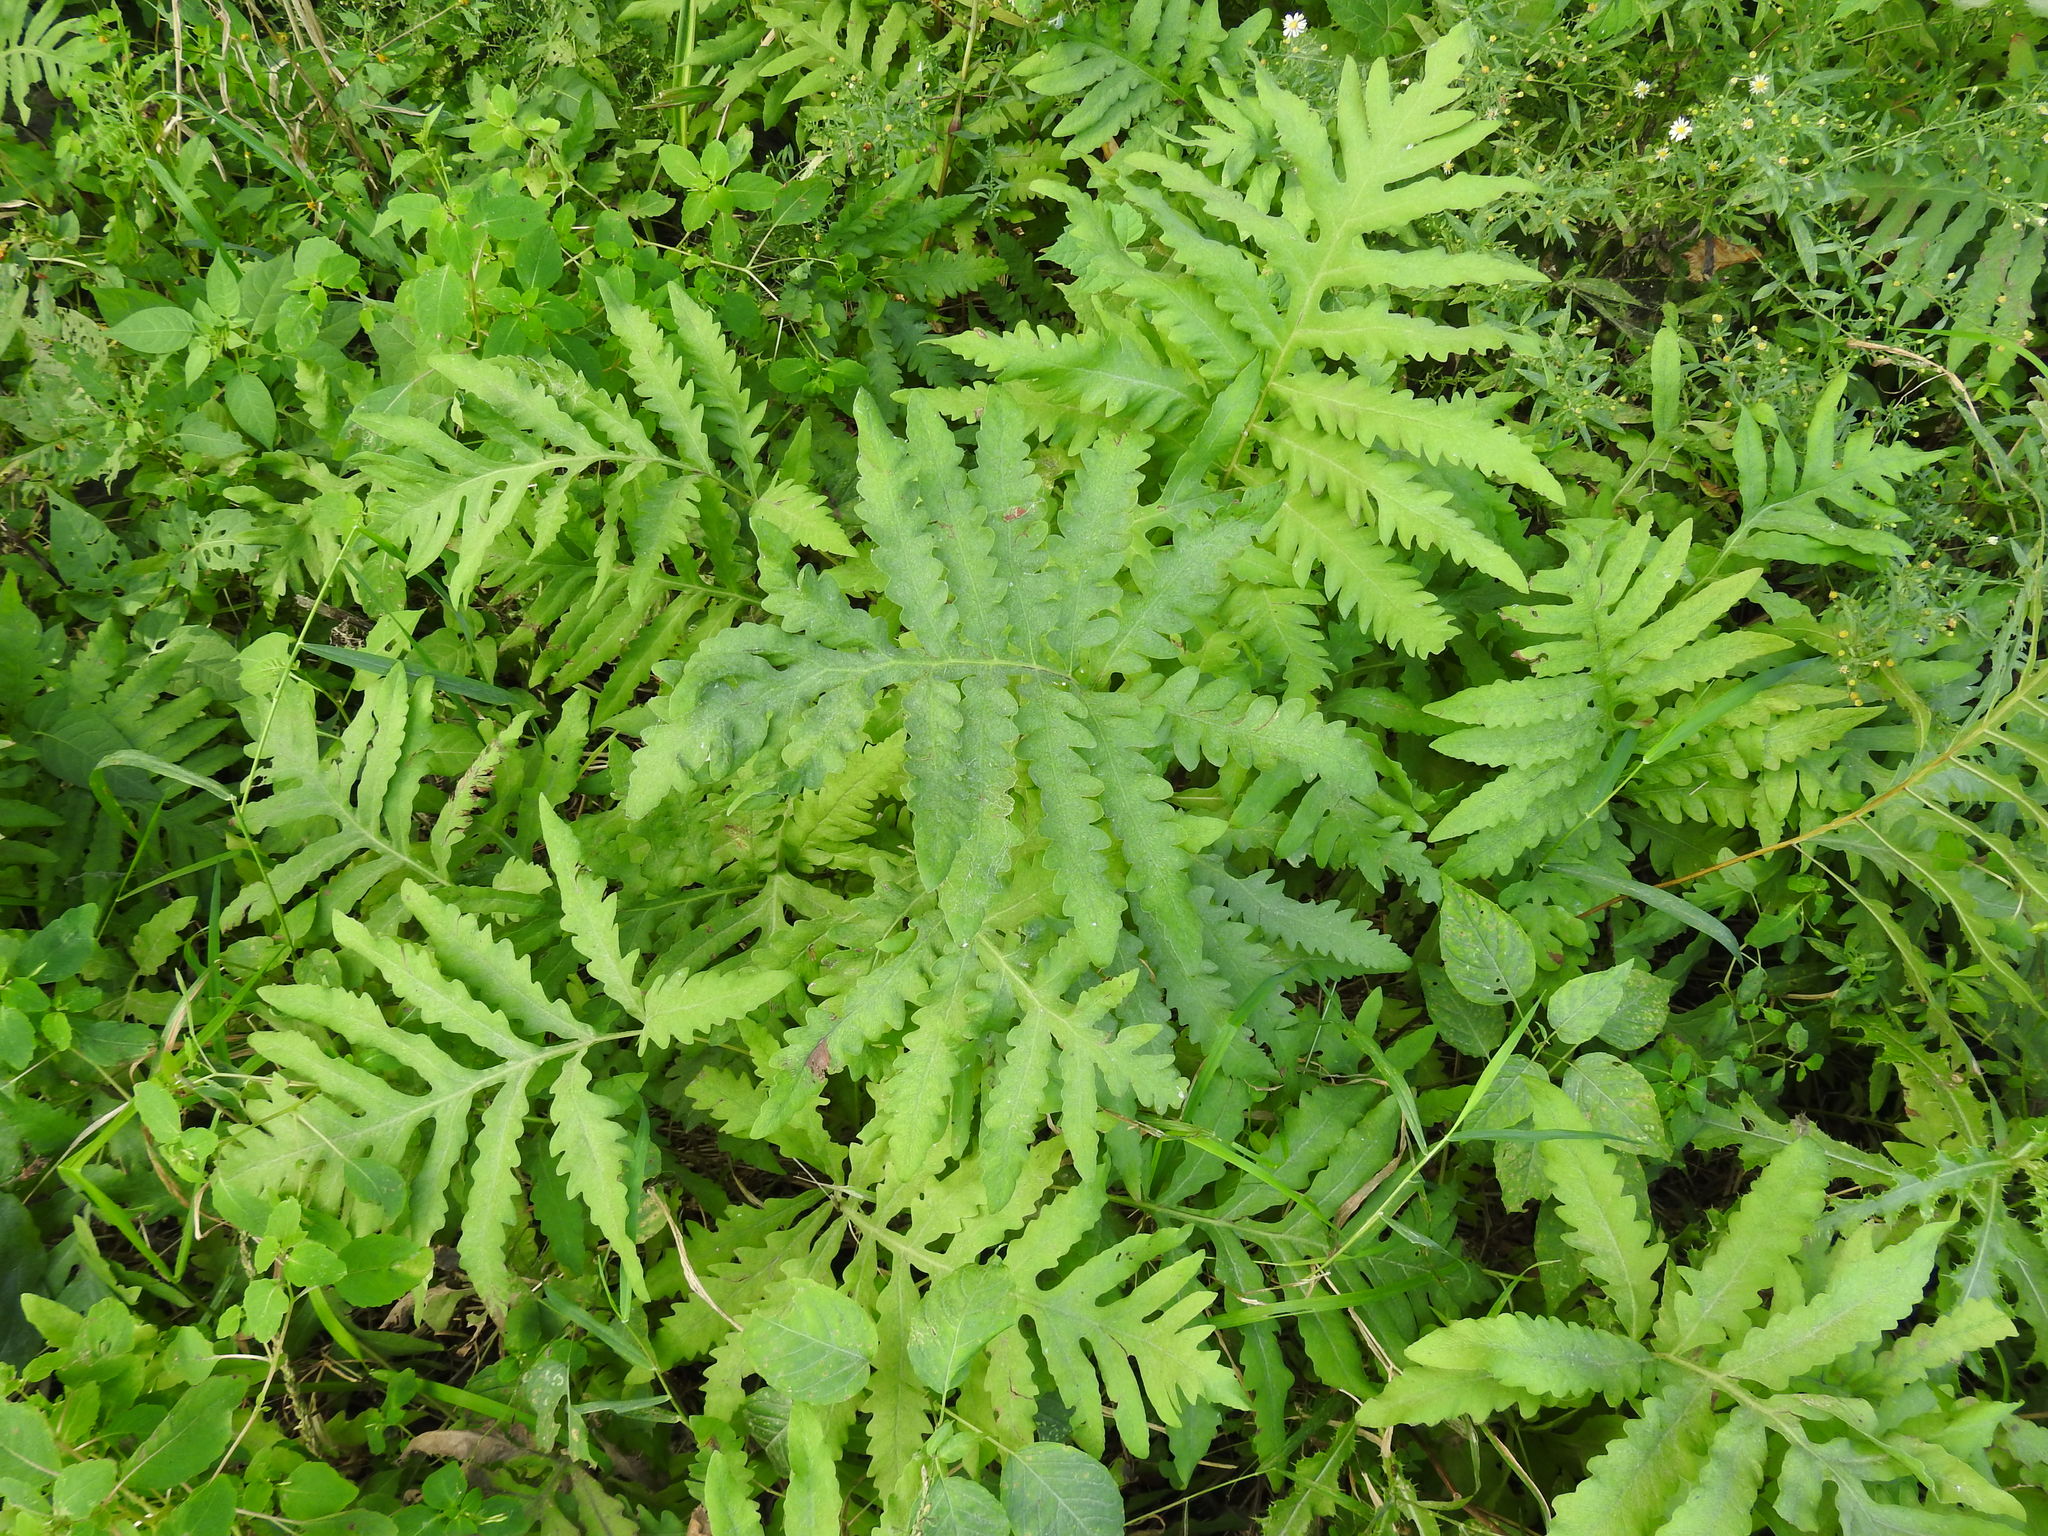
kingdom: Plantae
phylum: Tracheophyta
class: Polypodiopsida
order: Polypodiales
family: Onocleaceae
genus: Onoclea
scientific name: Onoclea sensibilis
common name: Sensitive fern
